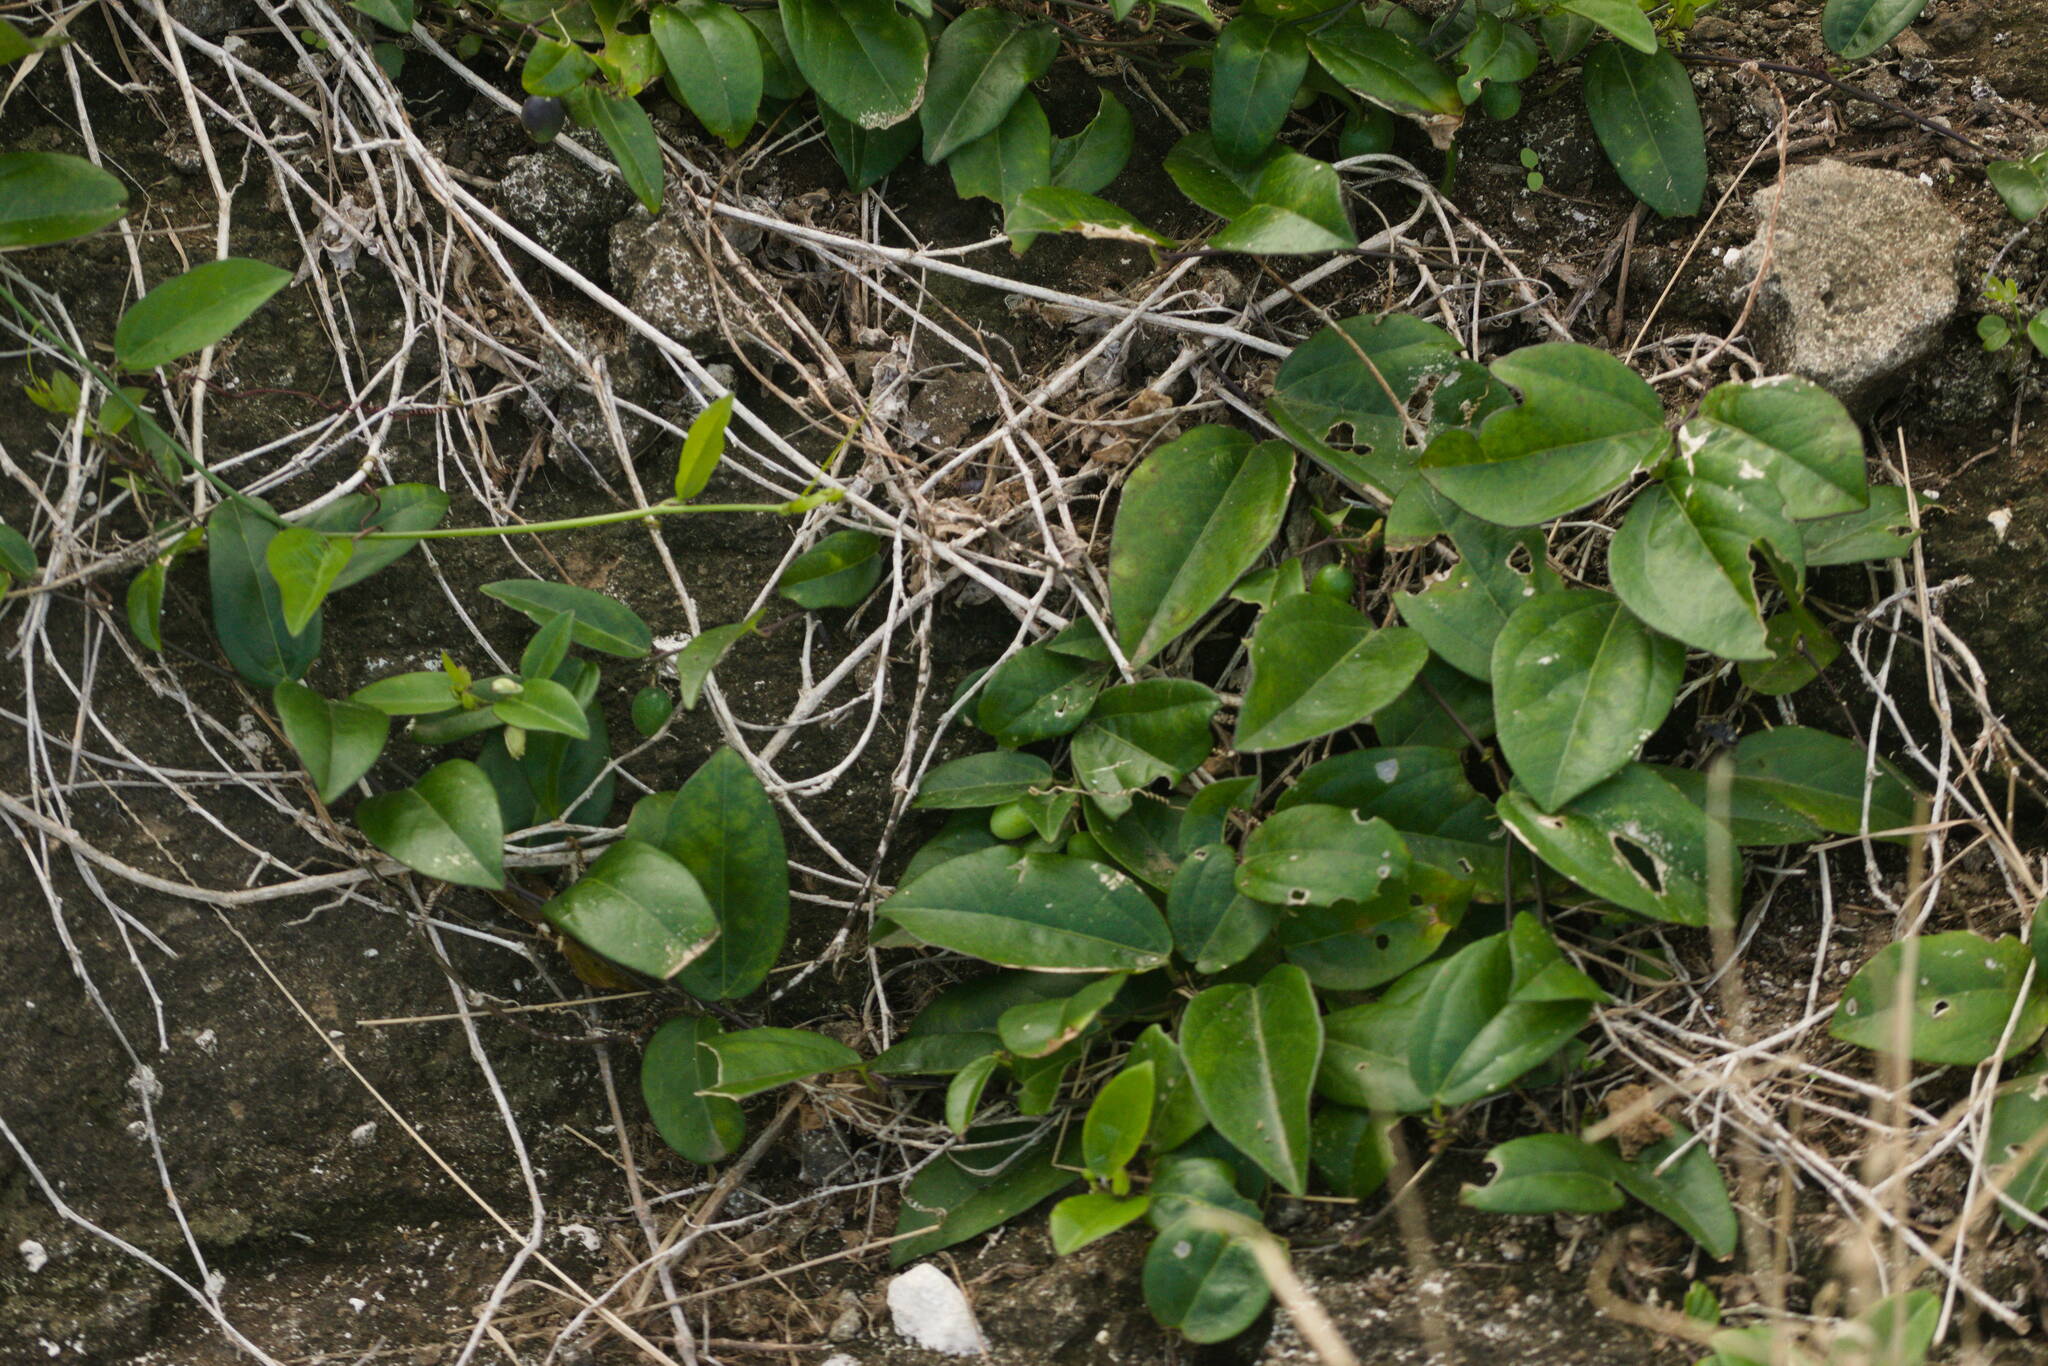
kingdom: Plantae
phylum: Tracheophyta
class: Magnoliopsida
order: Malpighiales
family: Passifloraceae
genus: Passiflora
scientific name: Passiflora suberosa
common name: Wild passionfruit
